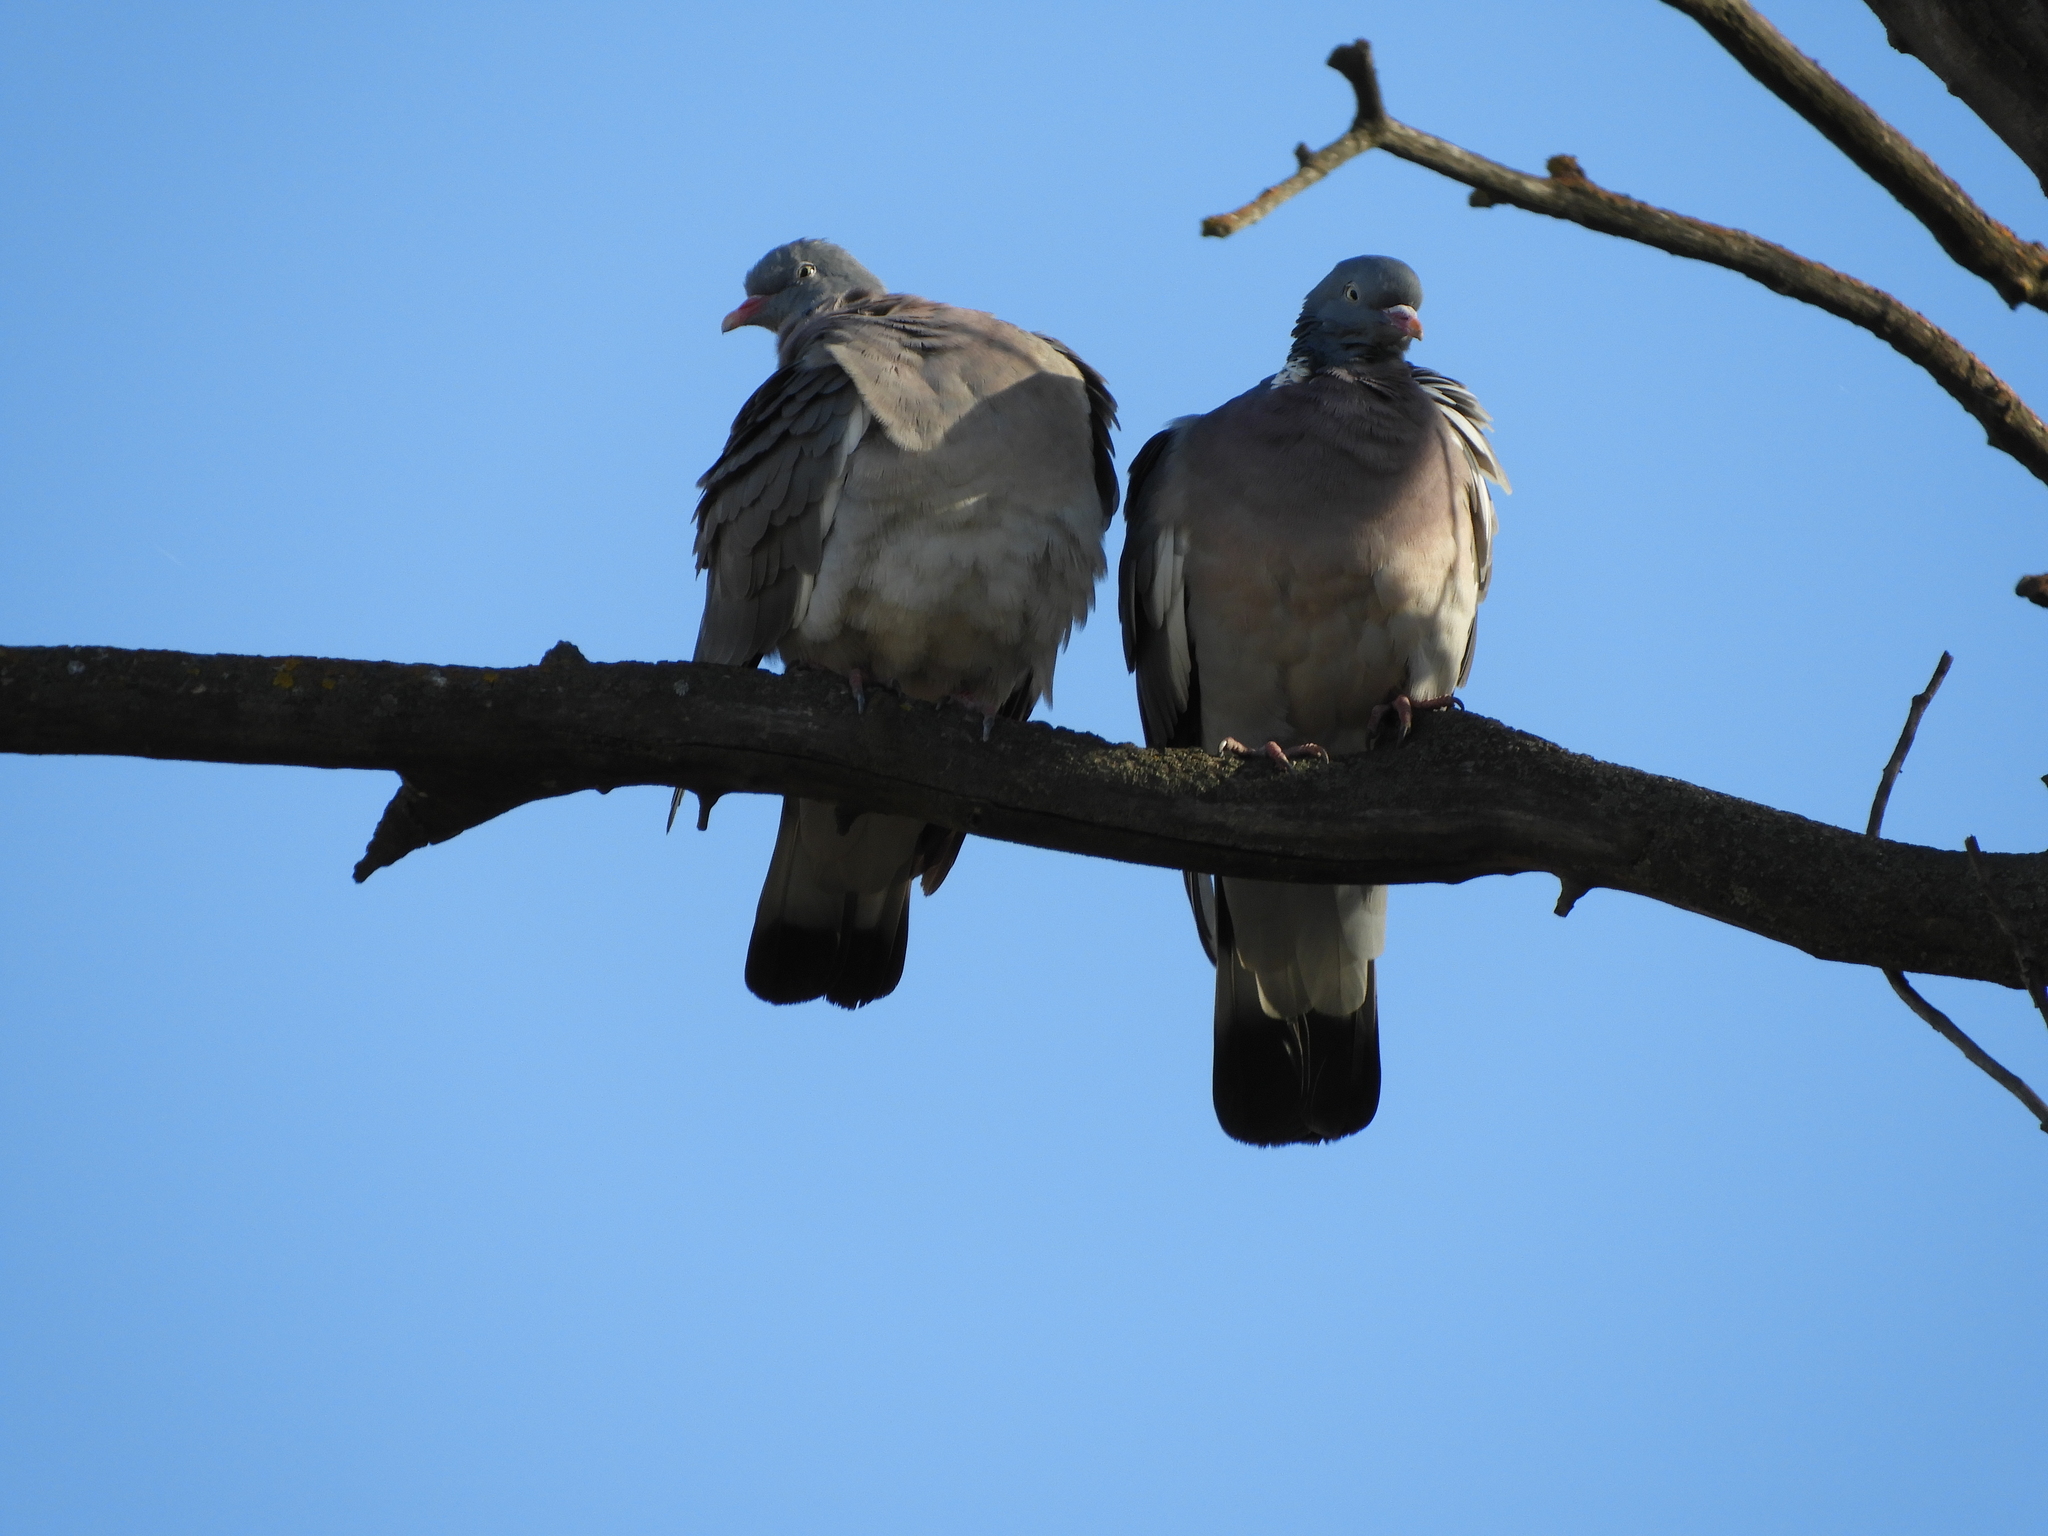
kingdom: Animalia
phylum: Chordata
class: Aves
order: Columbiformes
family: Columbidae
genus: Columba
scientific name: Columba palumbus
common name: Common wood pigeon
